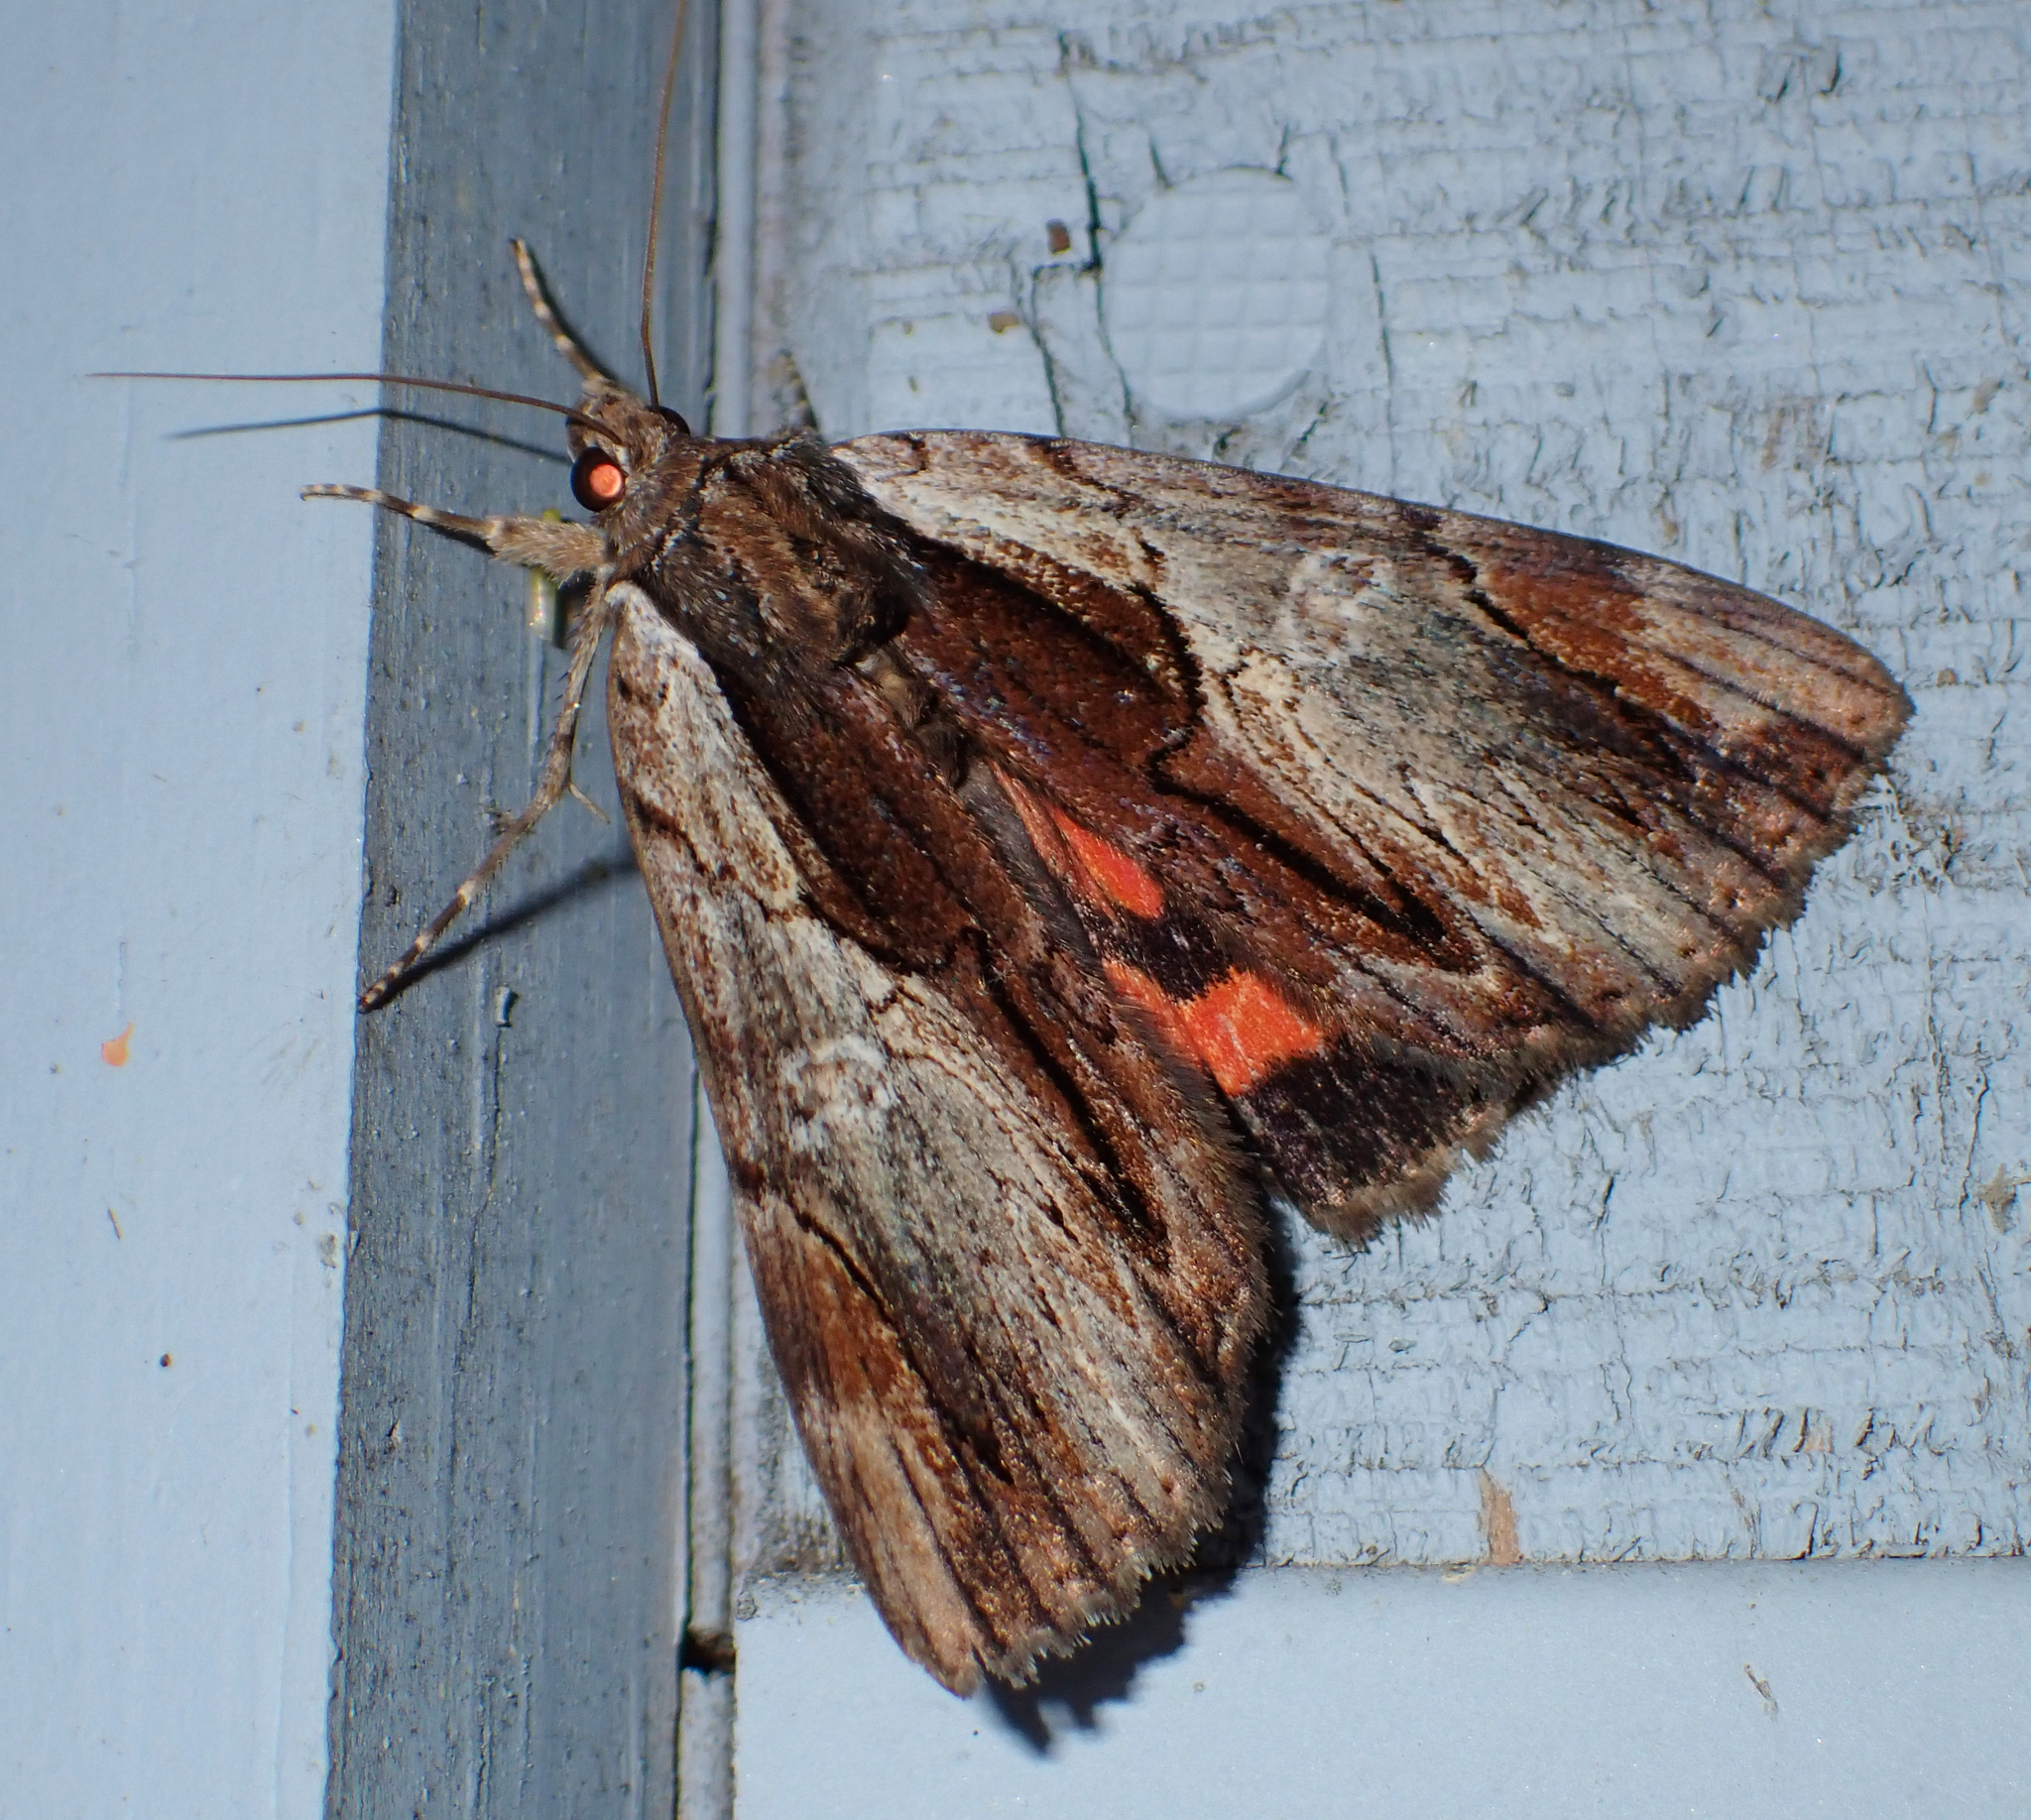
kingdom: Animalia
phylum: Arthropoda
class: Insecta
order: Lepidoptera
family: Erebidae
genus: Catocala
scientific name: Catocala ultronia
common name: Ultronia underwing
